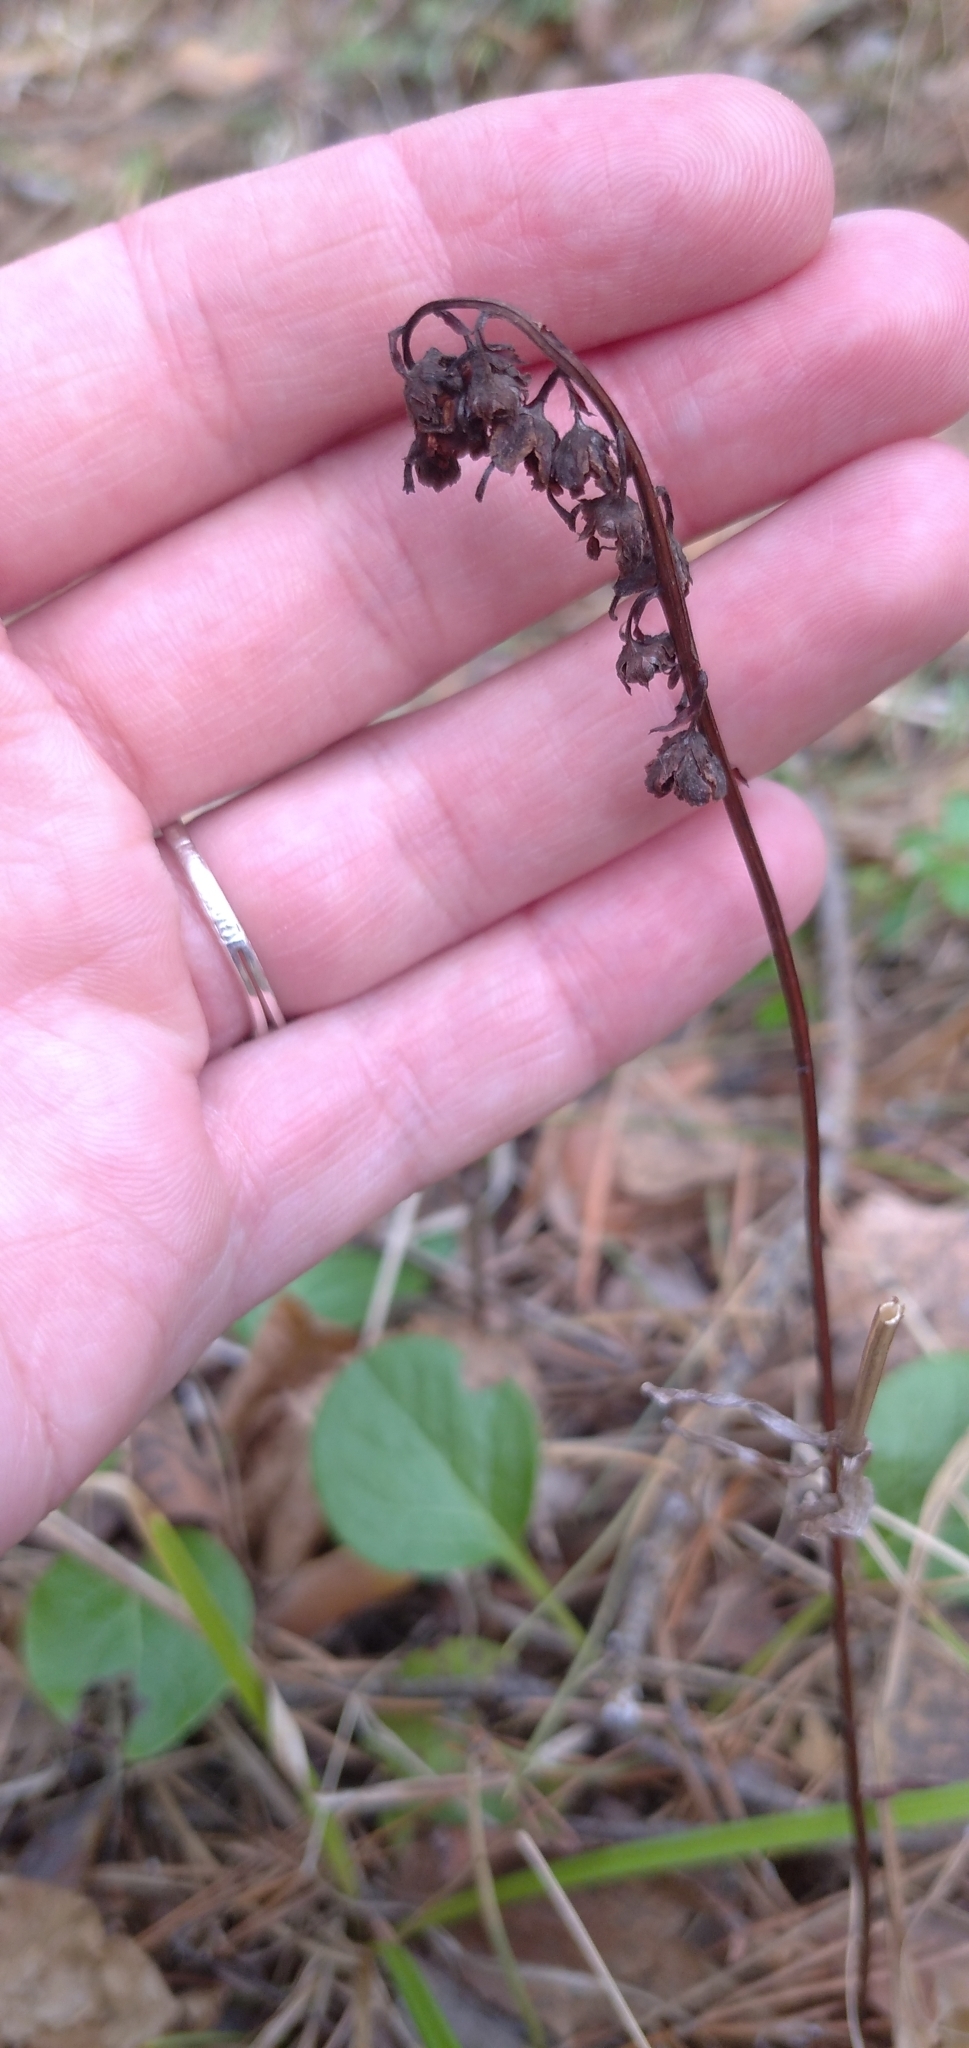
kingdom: Plantae
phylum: Tracheophyta
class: Magnoliopsida
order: Ericales
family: Ericaceae
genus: Pyrola
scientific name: Pyrola rotundifolia
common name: Round-leaved wintergreen
